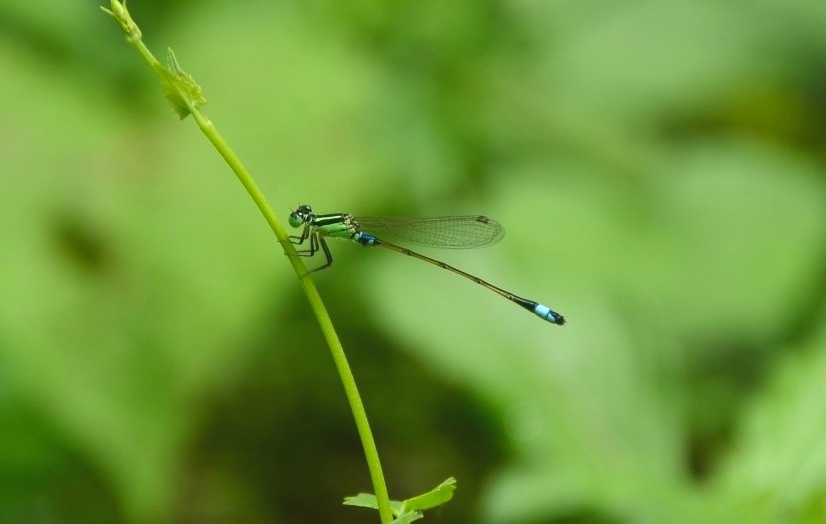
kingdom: Animalia
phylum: Arthropoda
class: Insecta
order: Odonata
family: Coenagrionidae
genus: Ischnura
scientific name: Ischnura senegalensis
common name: Tropical bluetail
